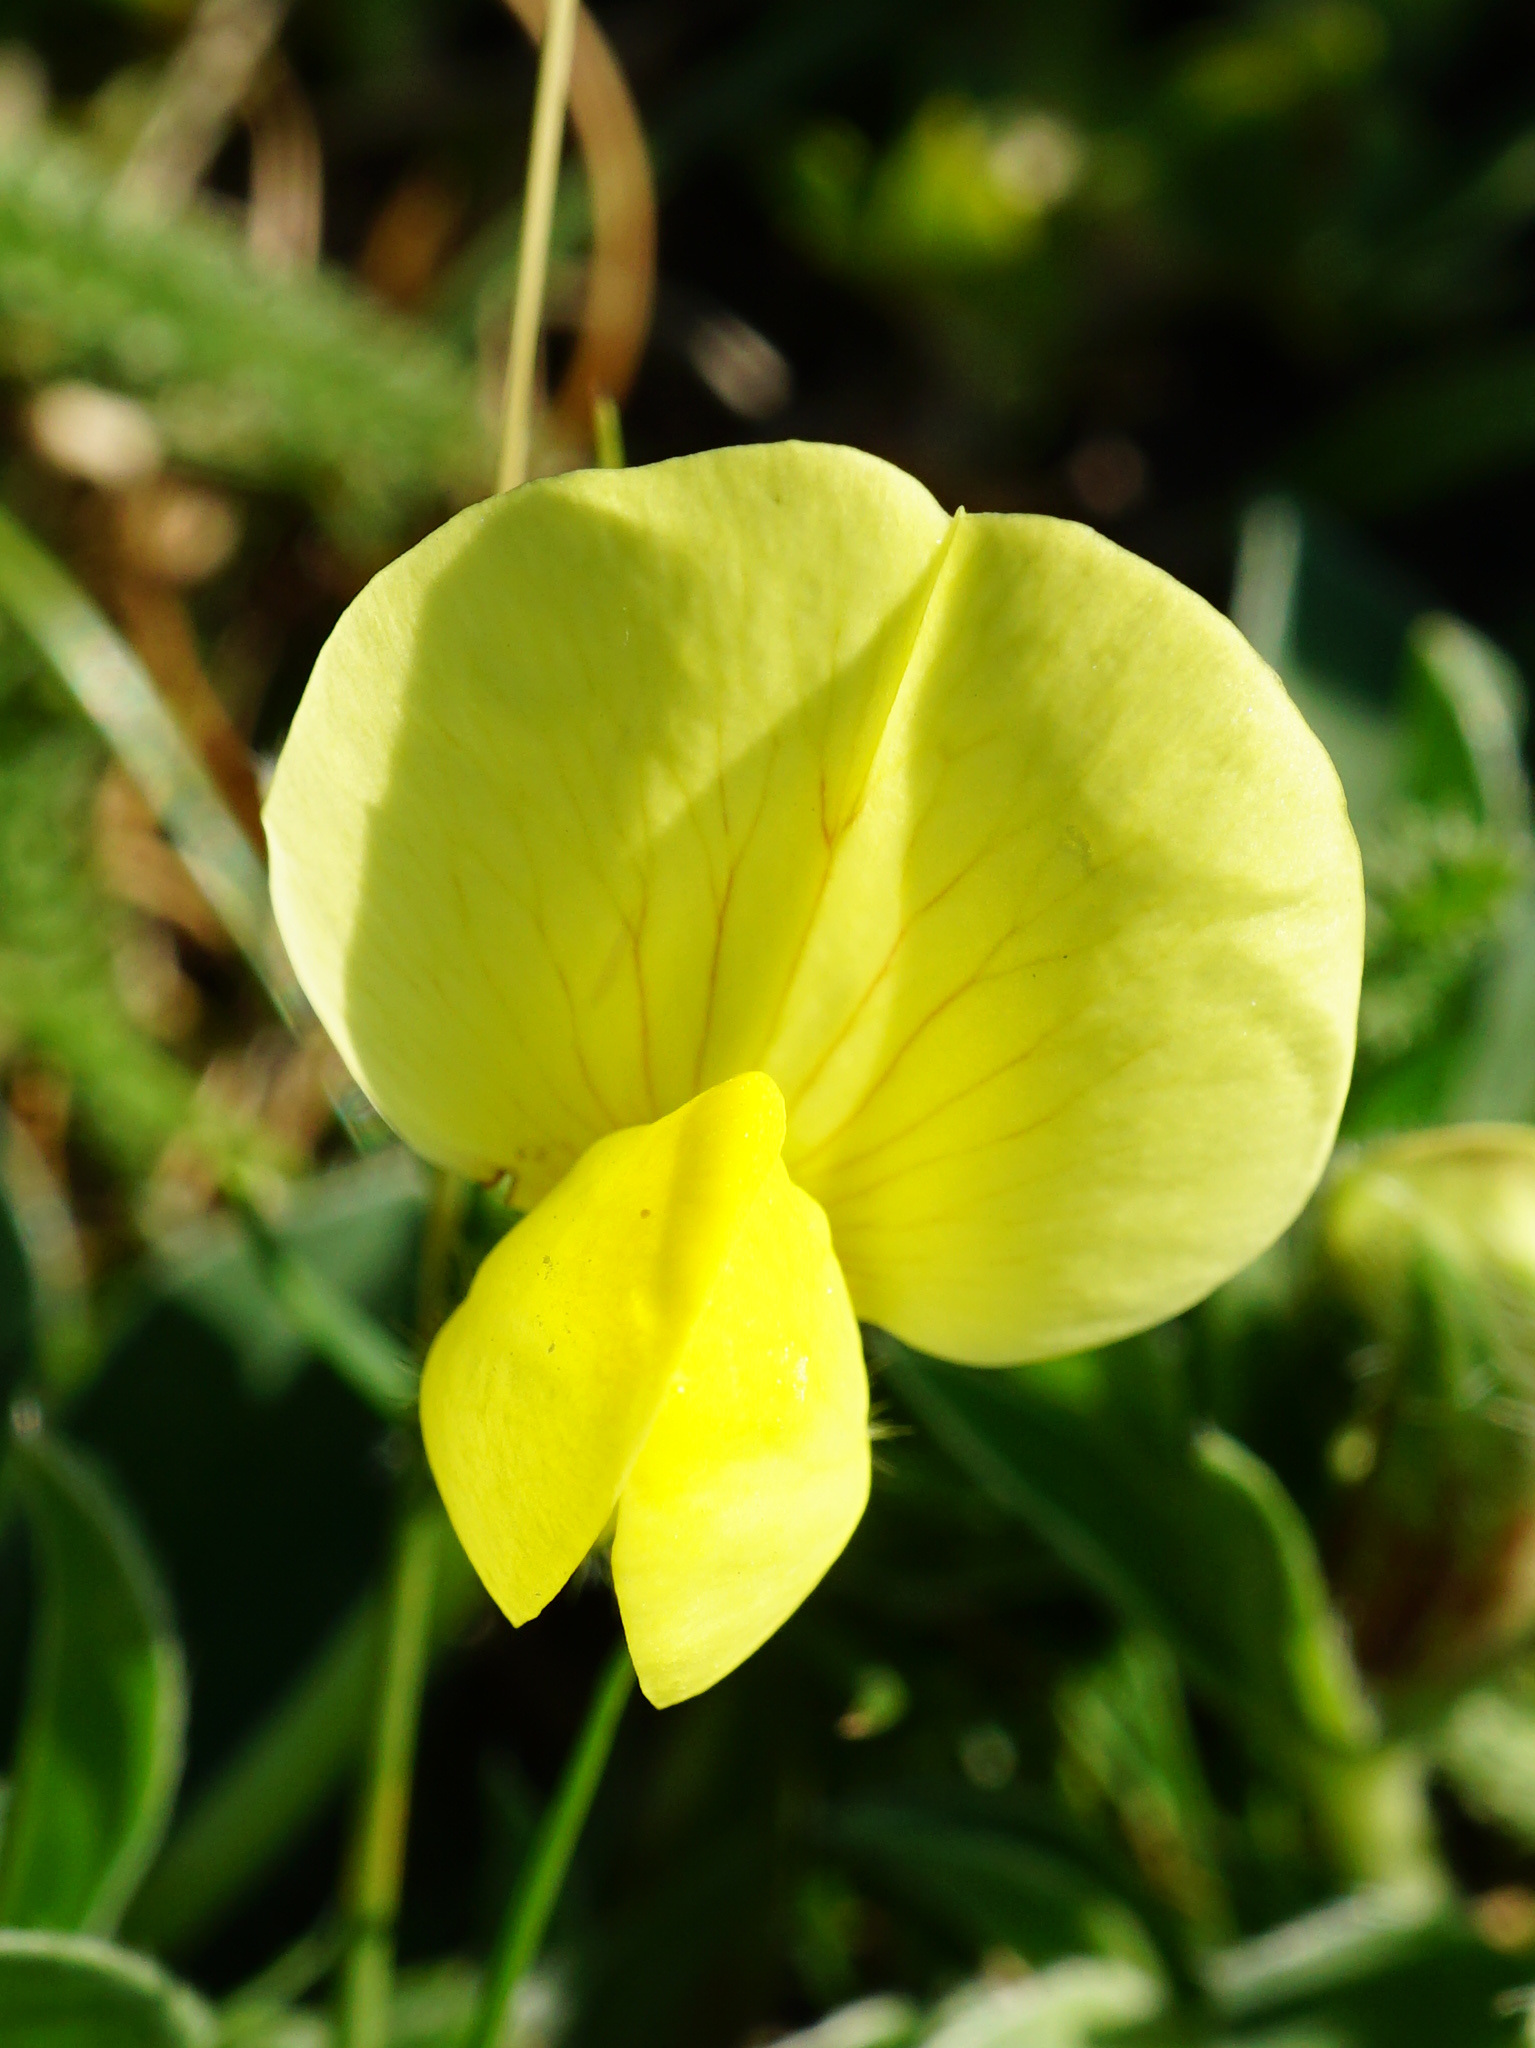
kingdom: Plantae
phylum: Tracheophyta
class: Magnoliopsida
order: Fabales
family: Fabaceae
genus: Lotus
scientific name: Lotus maritimus
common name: Dragon's-teeth
